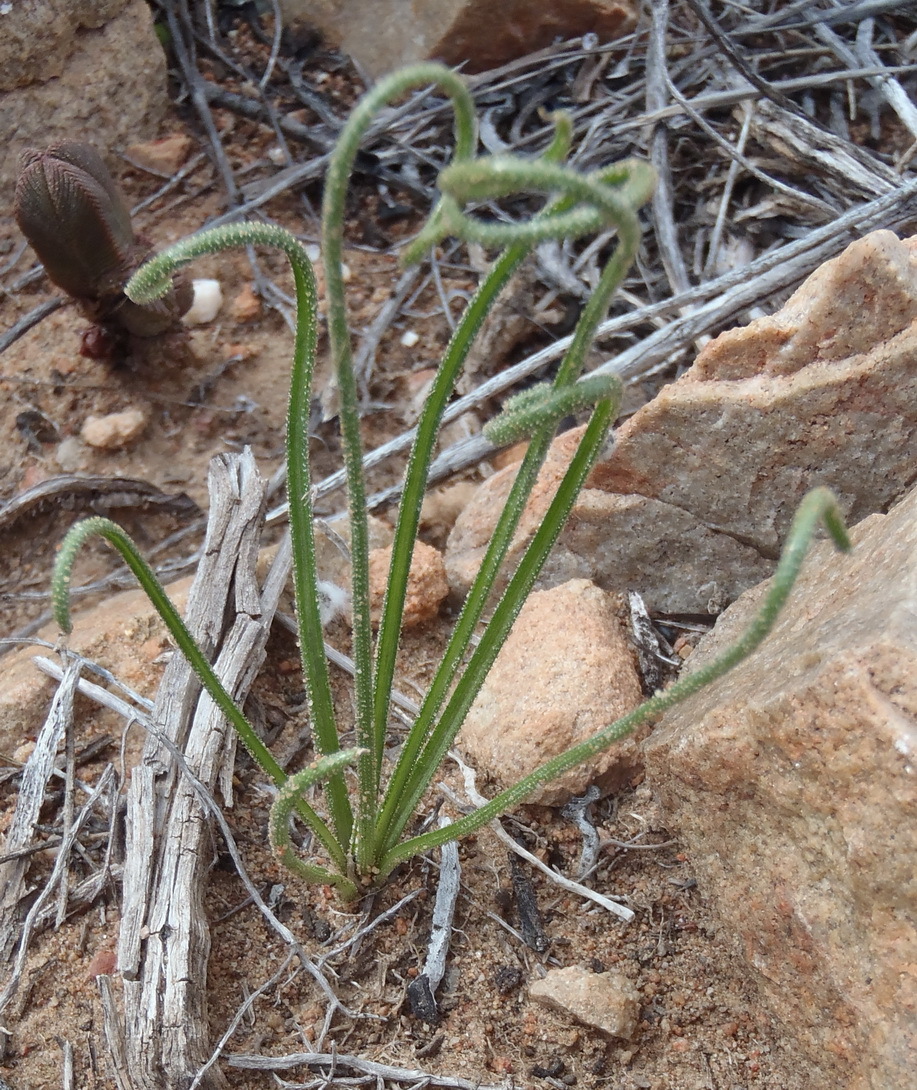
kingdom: Plantae
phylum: Tracheophyta
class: Liliopsida
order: Asparagales
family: Asparagaceae
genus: Albuca
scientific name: Albuca viscosa
